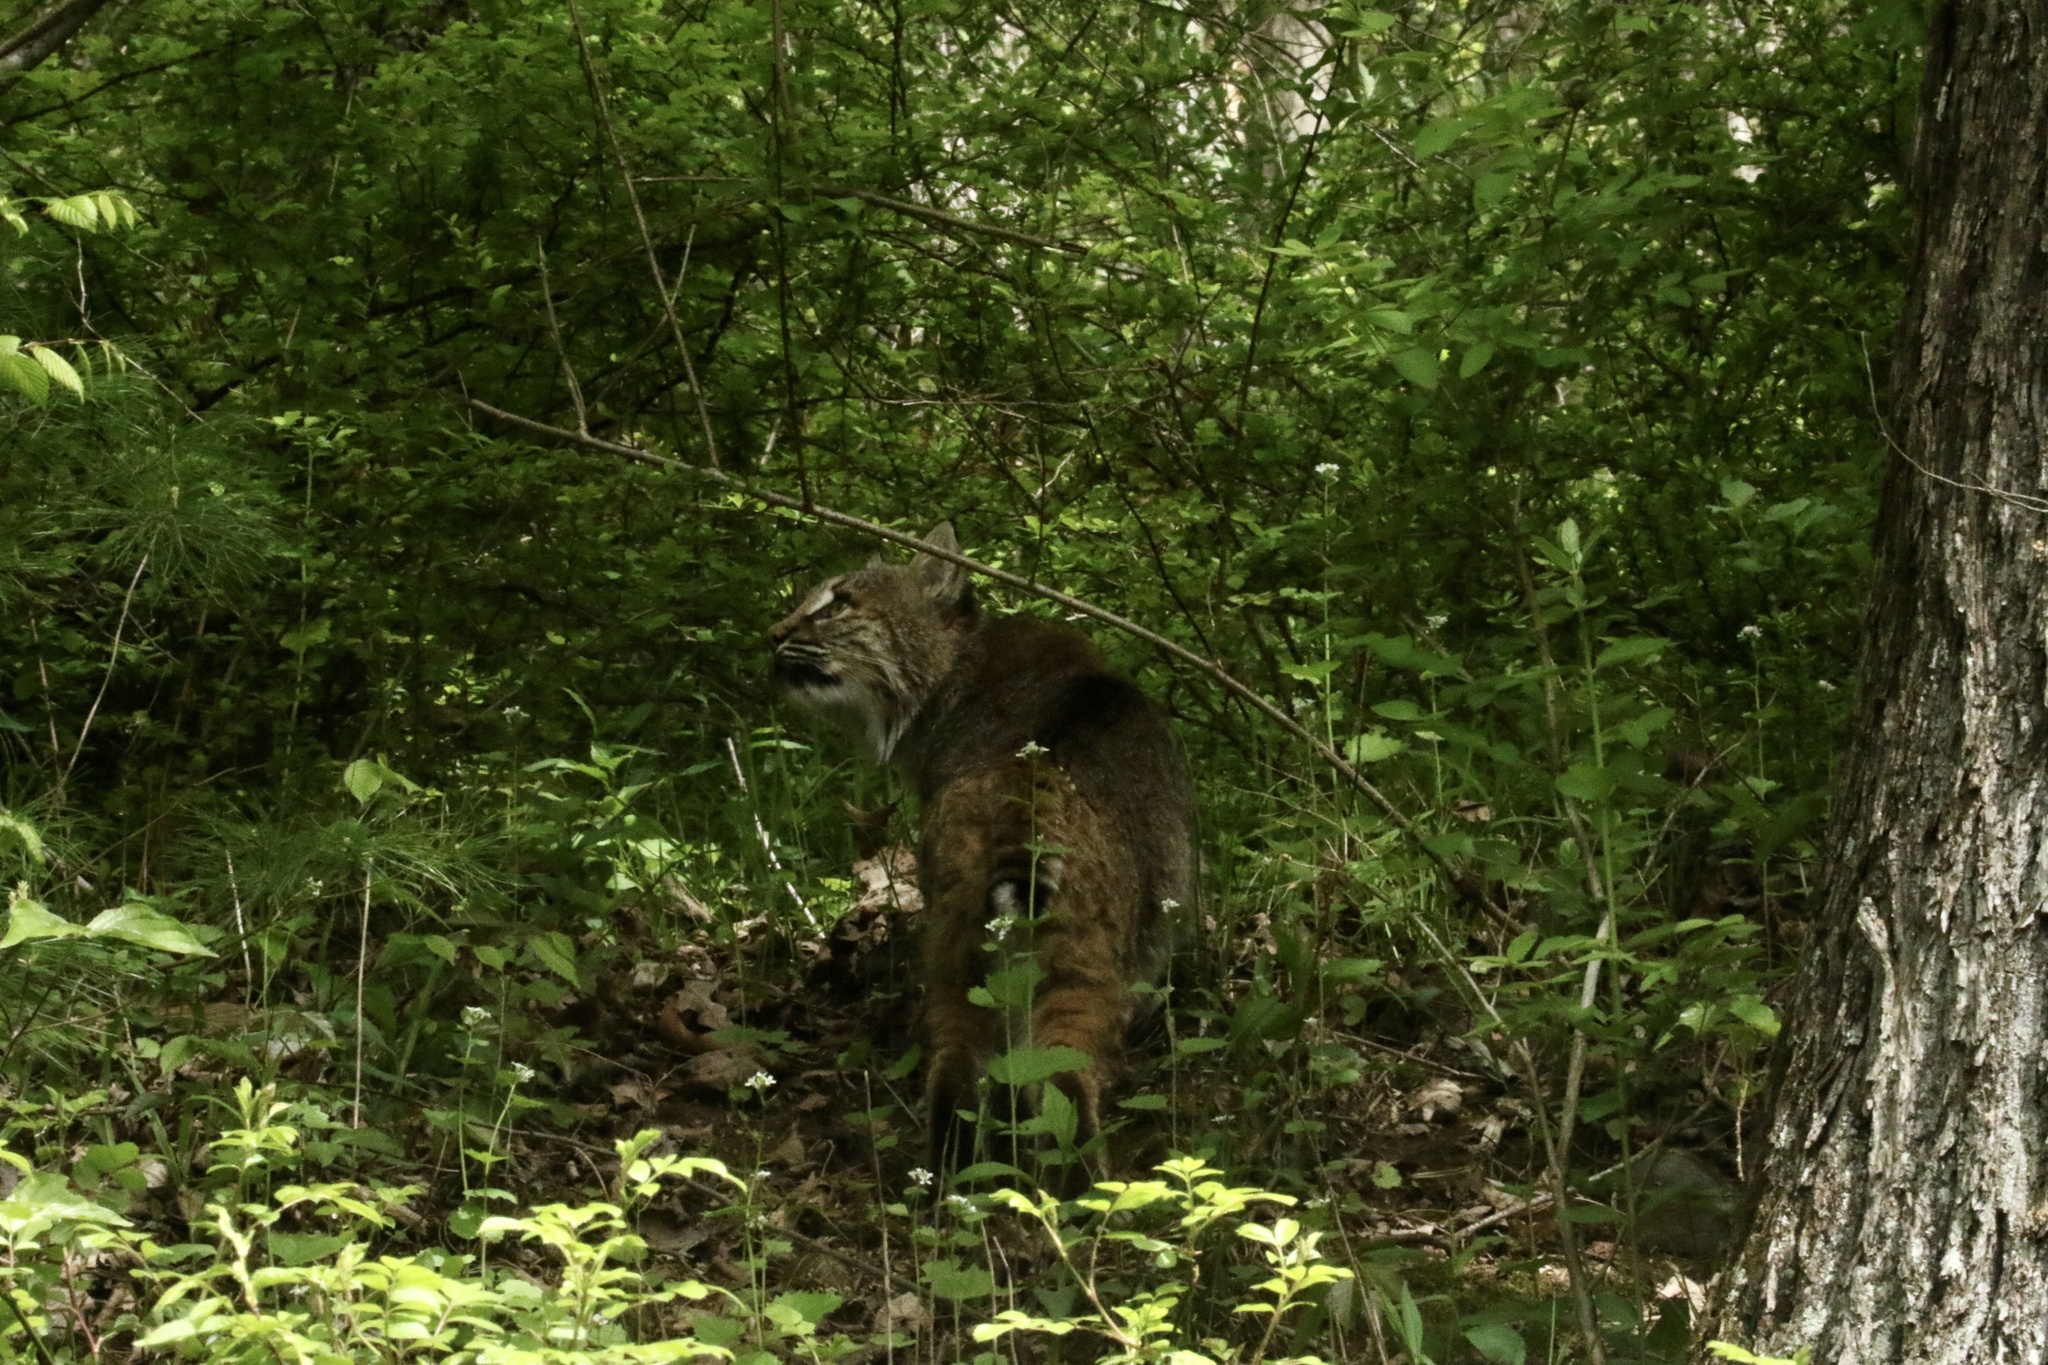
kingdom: Animalia
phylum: Chordata
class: Mammalia
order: Carnivora
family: Felidae
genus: Lynx
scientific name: Lynx rufus
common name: Bobcat
